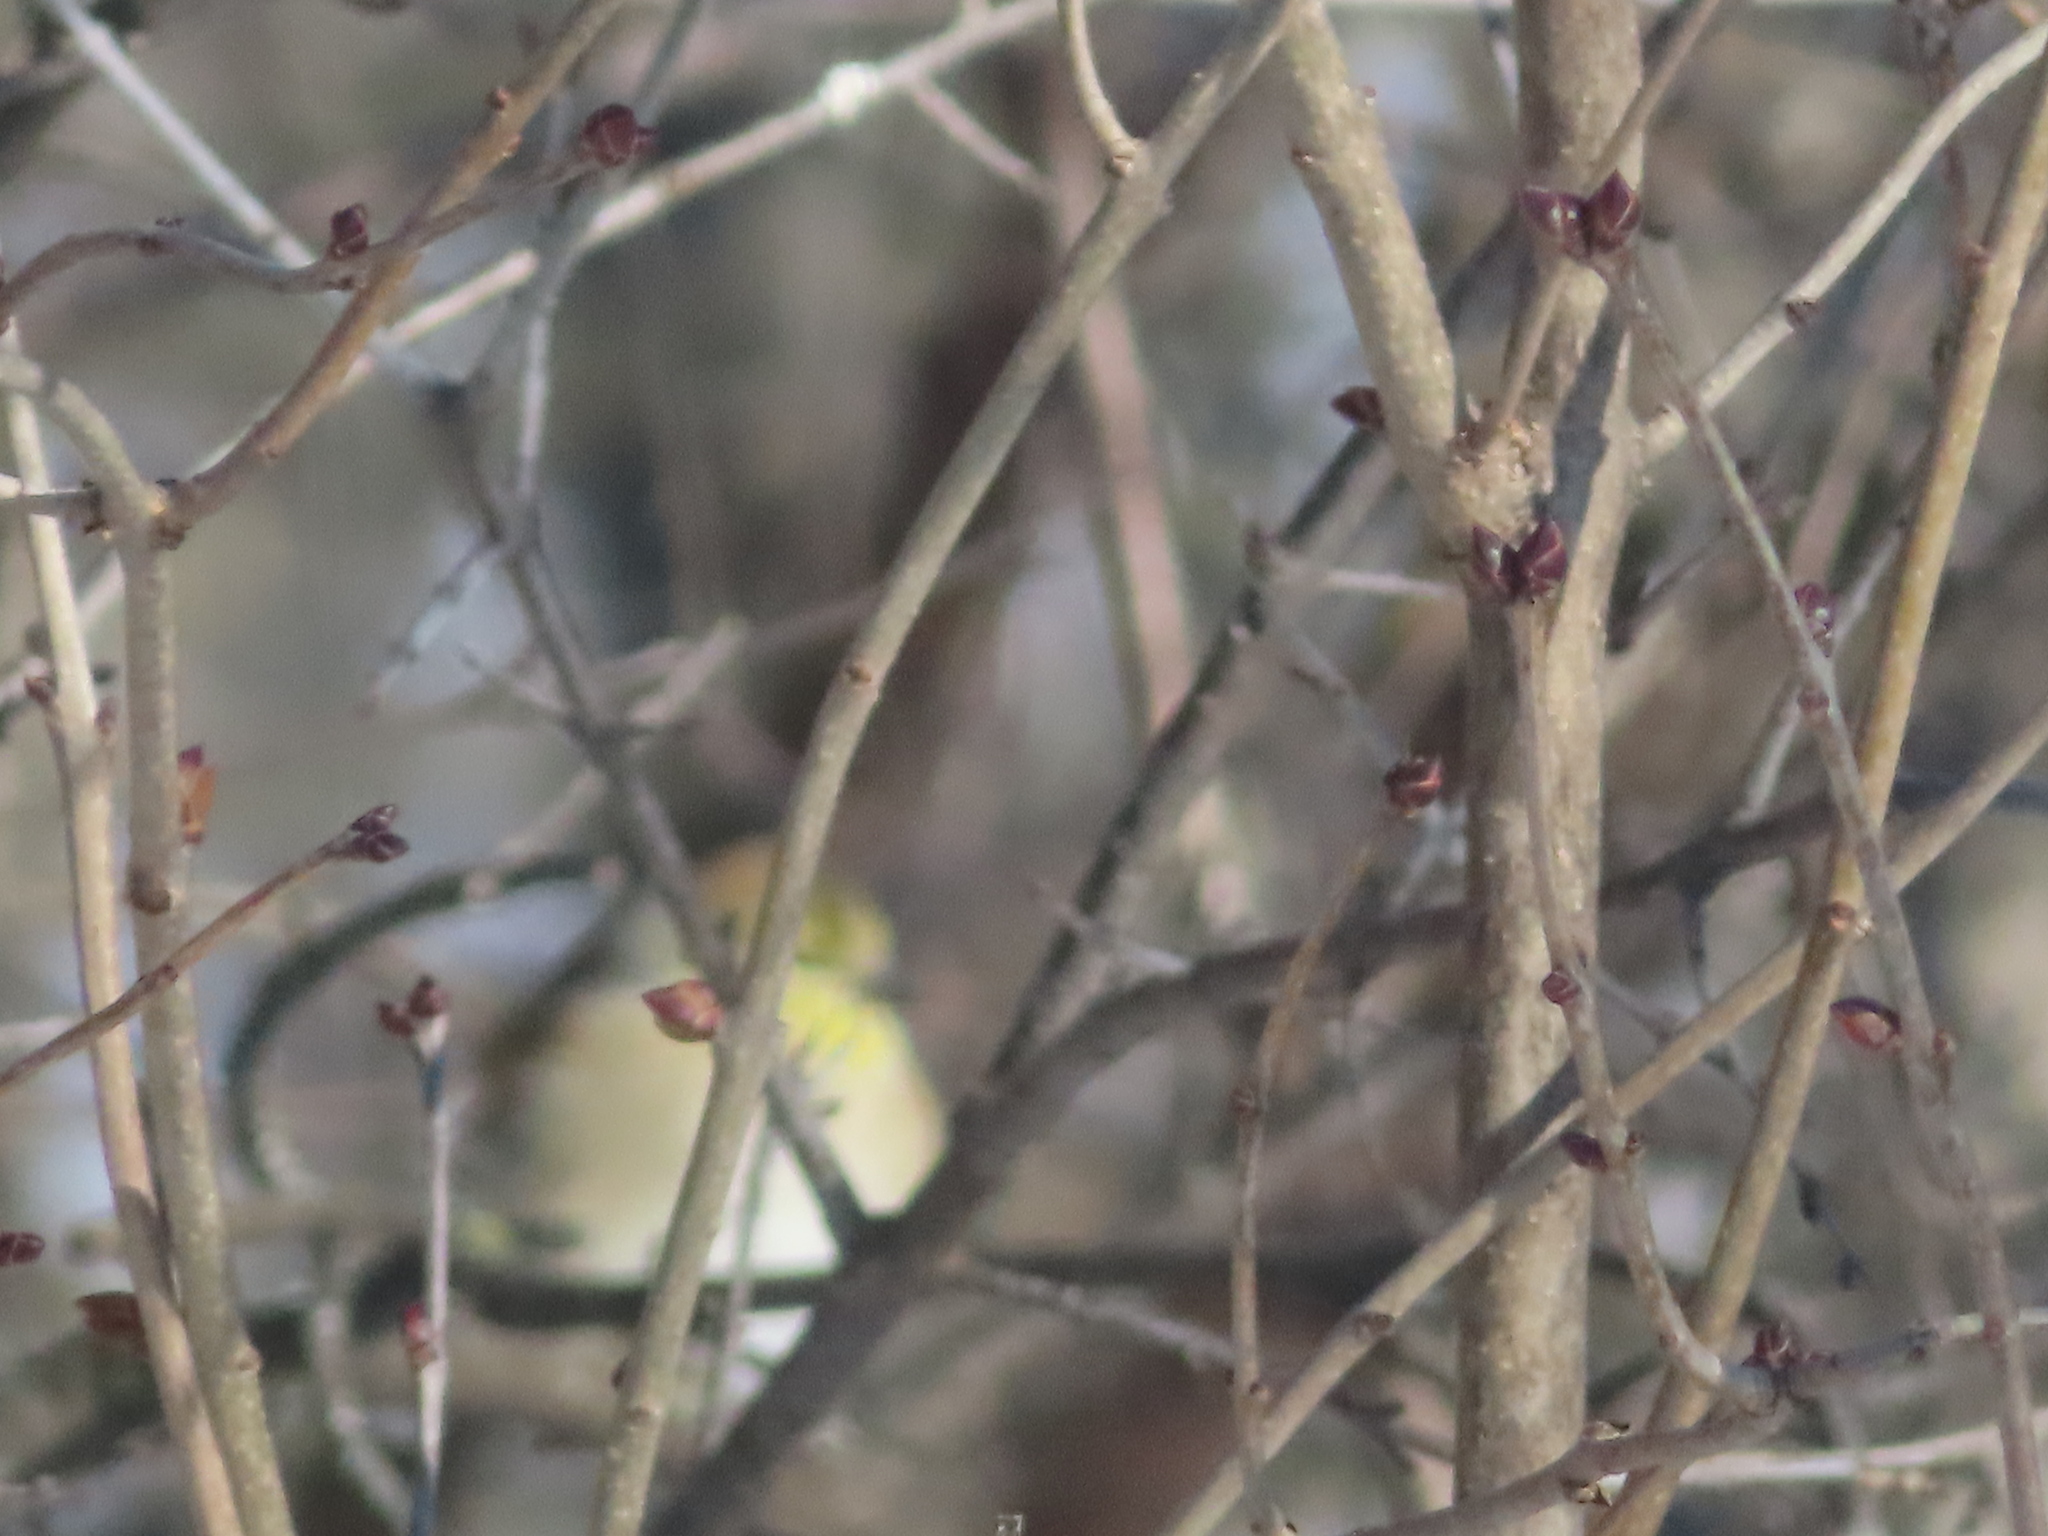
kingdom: Animalia
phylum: Chordata
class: Aves
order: Passeriformes
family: Fringillidae
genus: Spinus
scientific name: Spinus tristis
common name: American goldfinch
